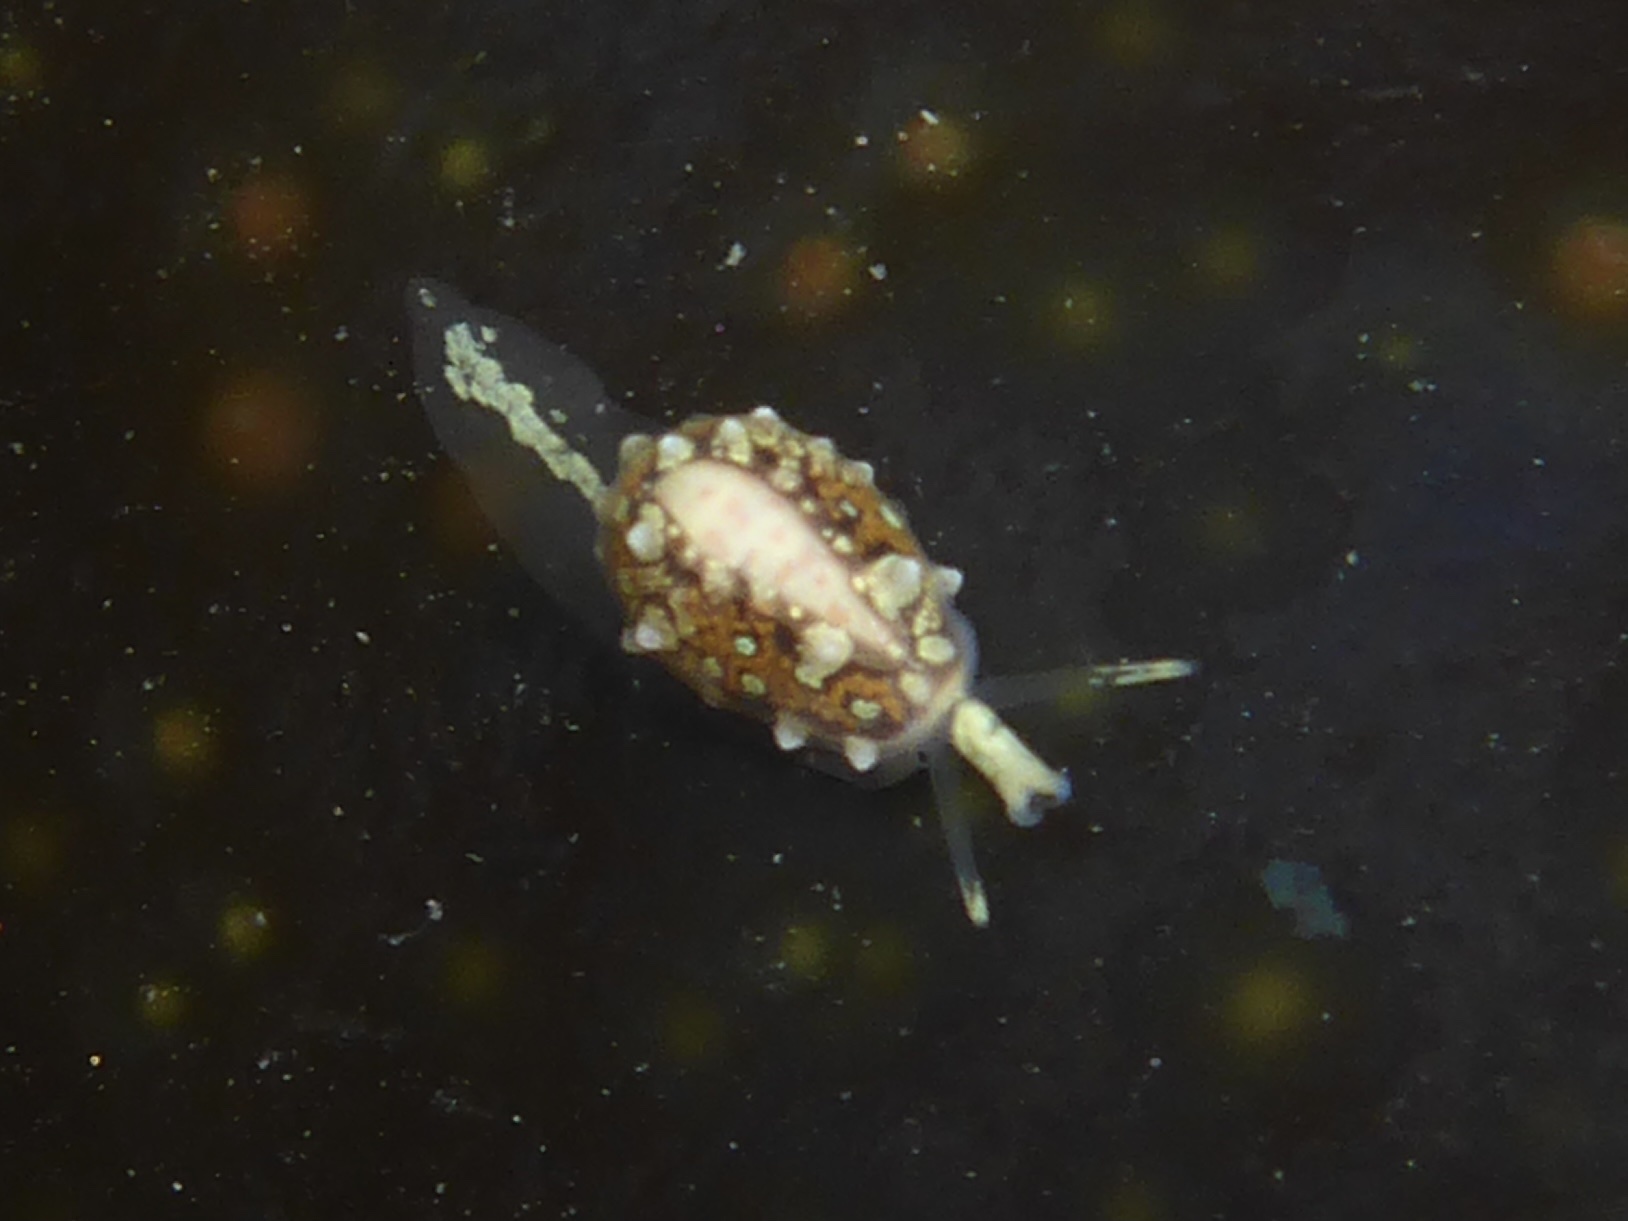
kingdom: Animalia
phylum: Mollusca
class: Gastropoda
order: Neogastropoda
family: Granulinidae
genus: Granulina
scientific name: Granulina margaritula
